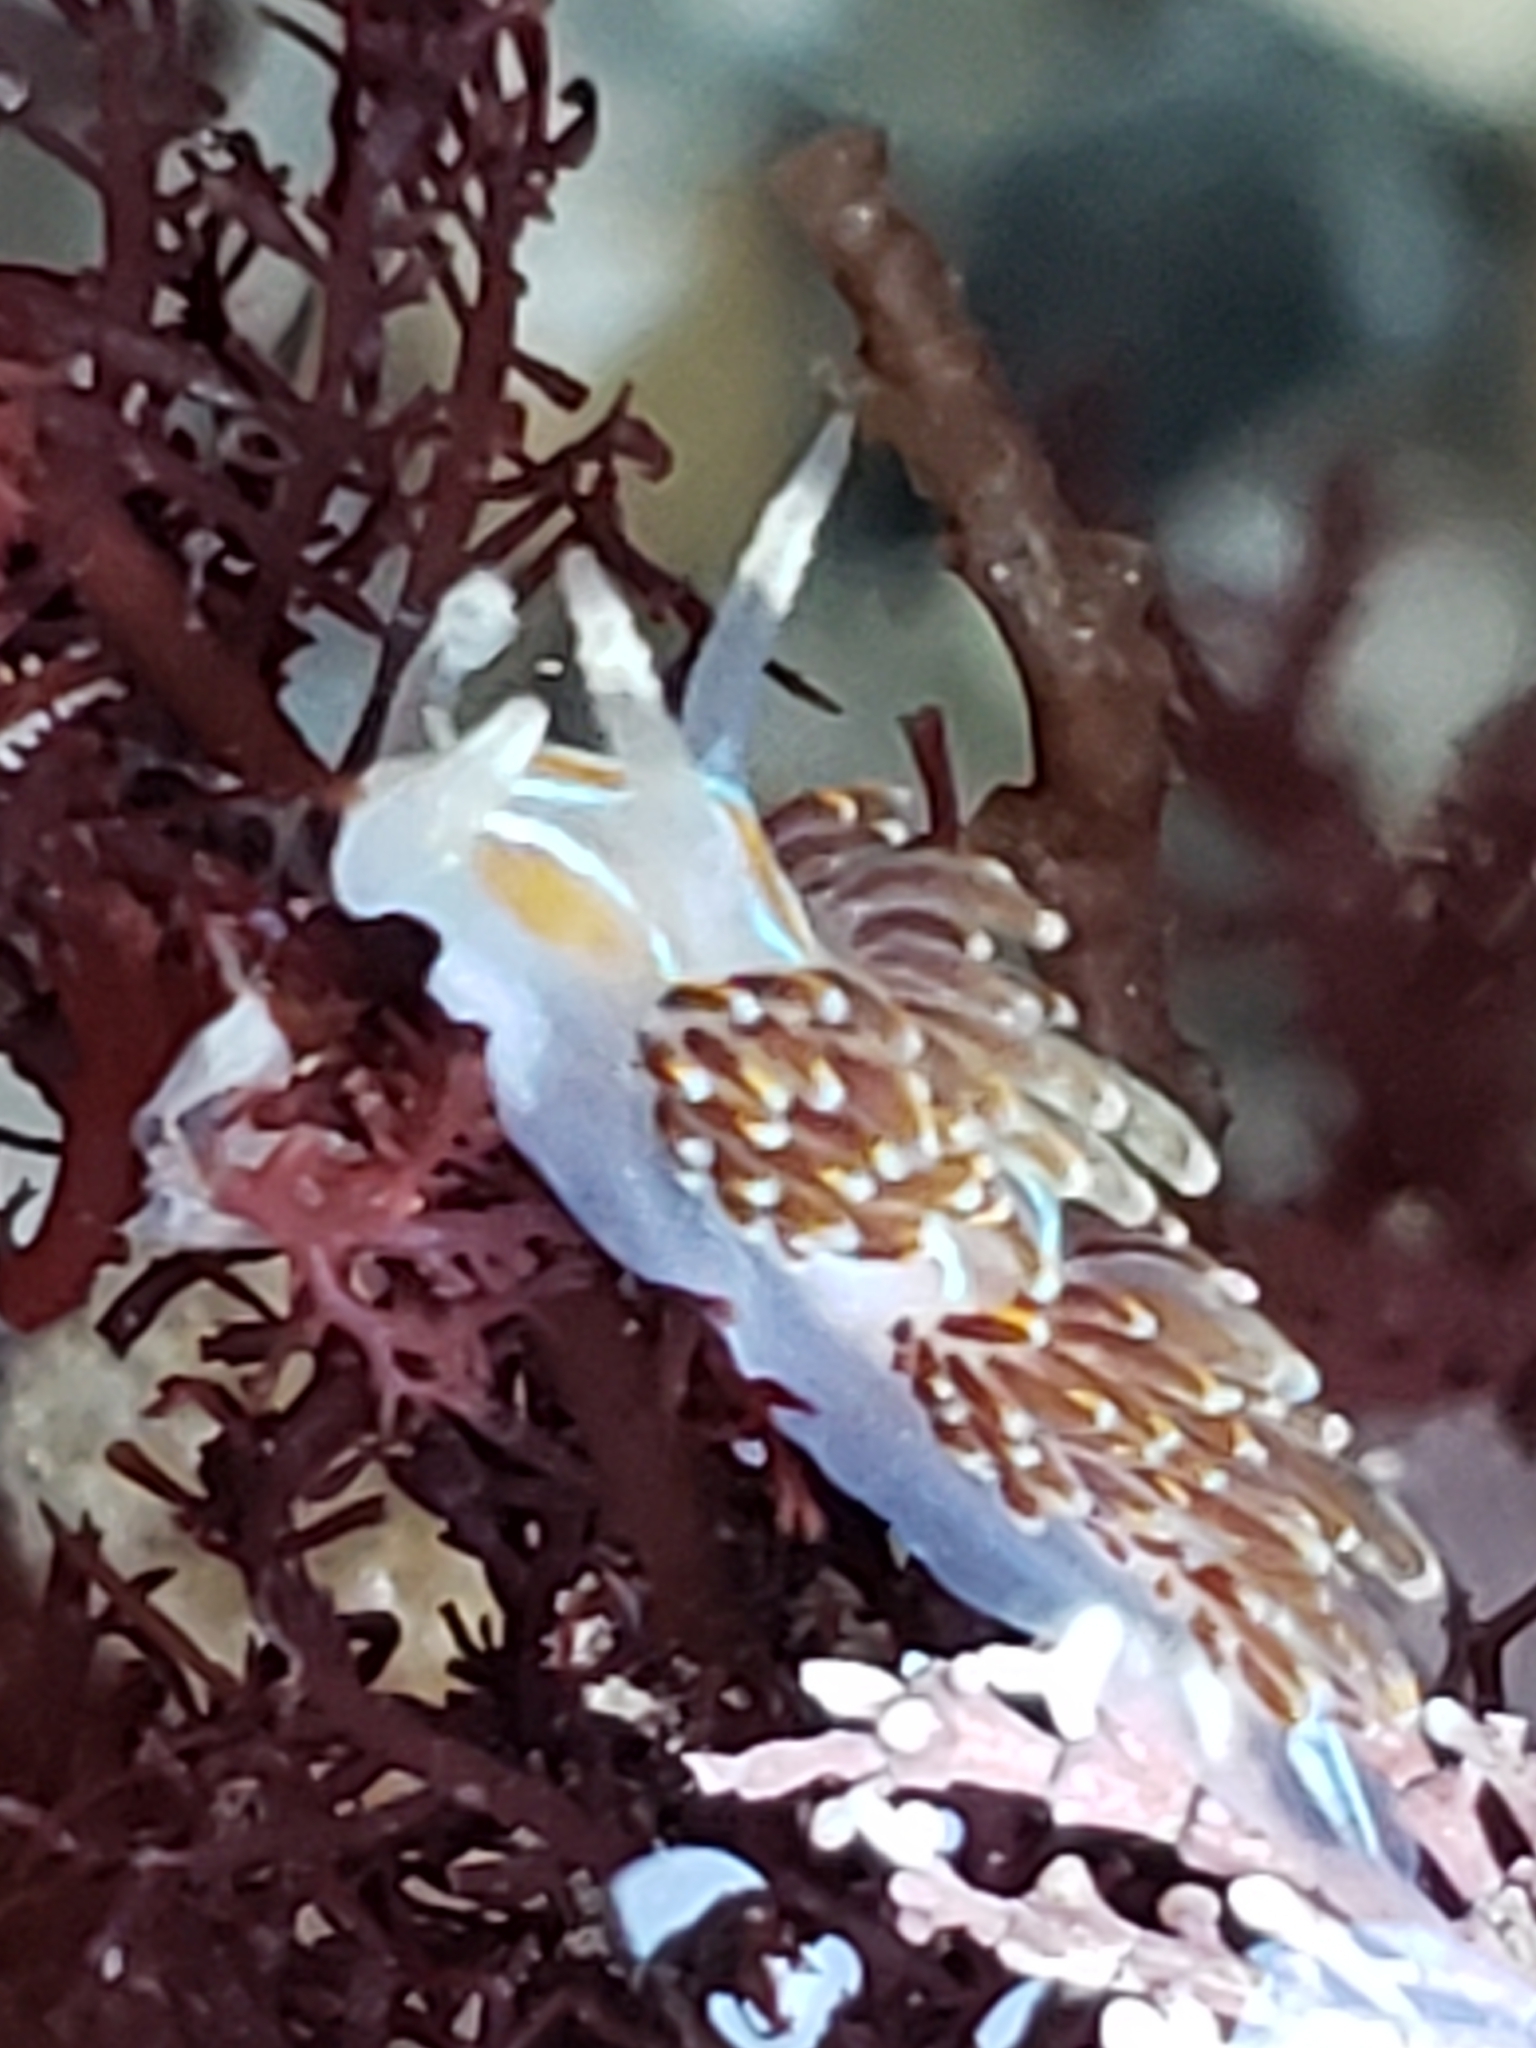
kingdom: Animalia
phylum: Mollusca
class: Gastropoda
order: Nudibranchia
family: Myrrhinidae
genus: Hermissenda
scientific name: Hermissenda opalescens
